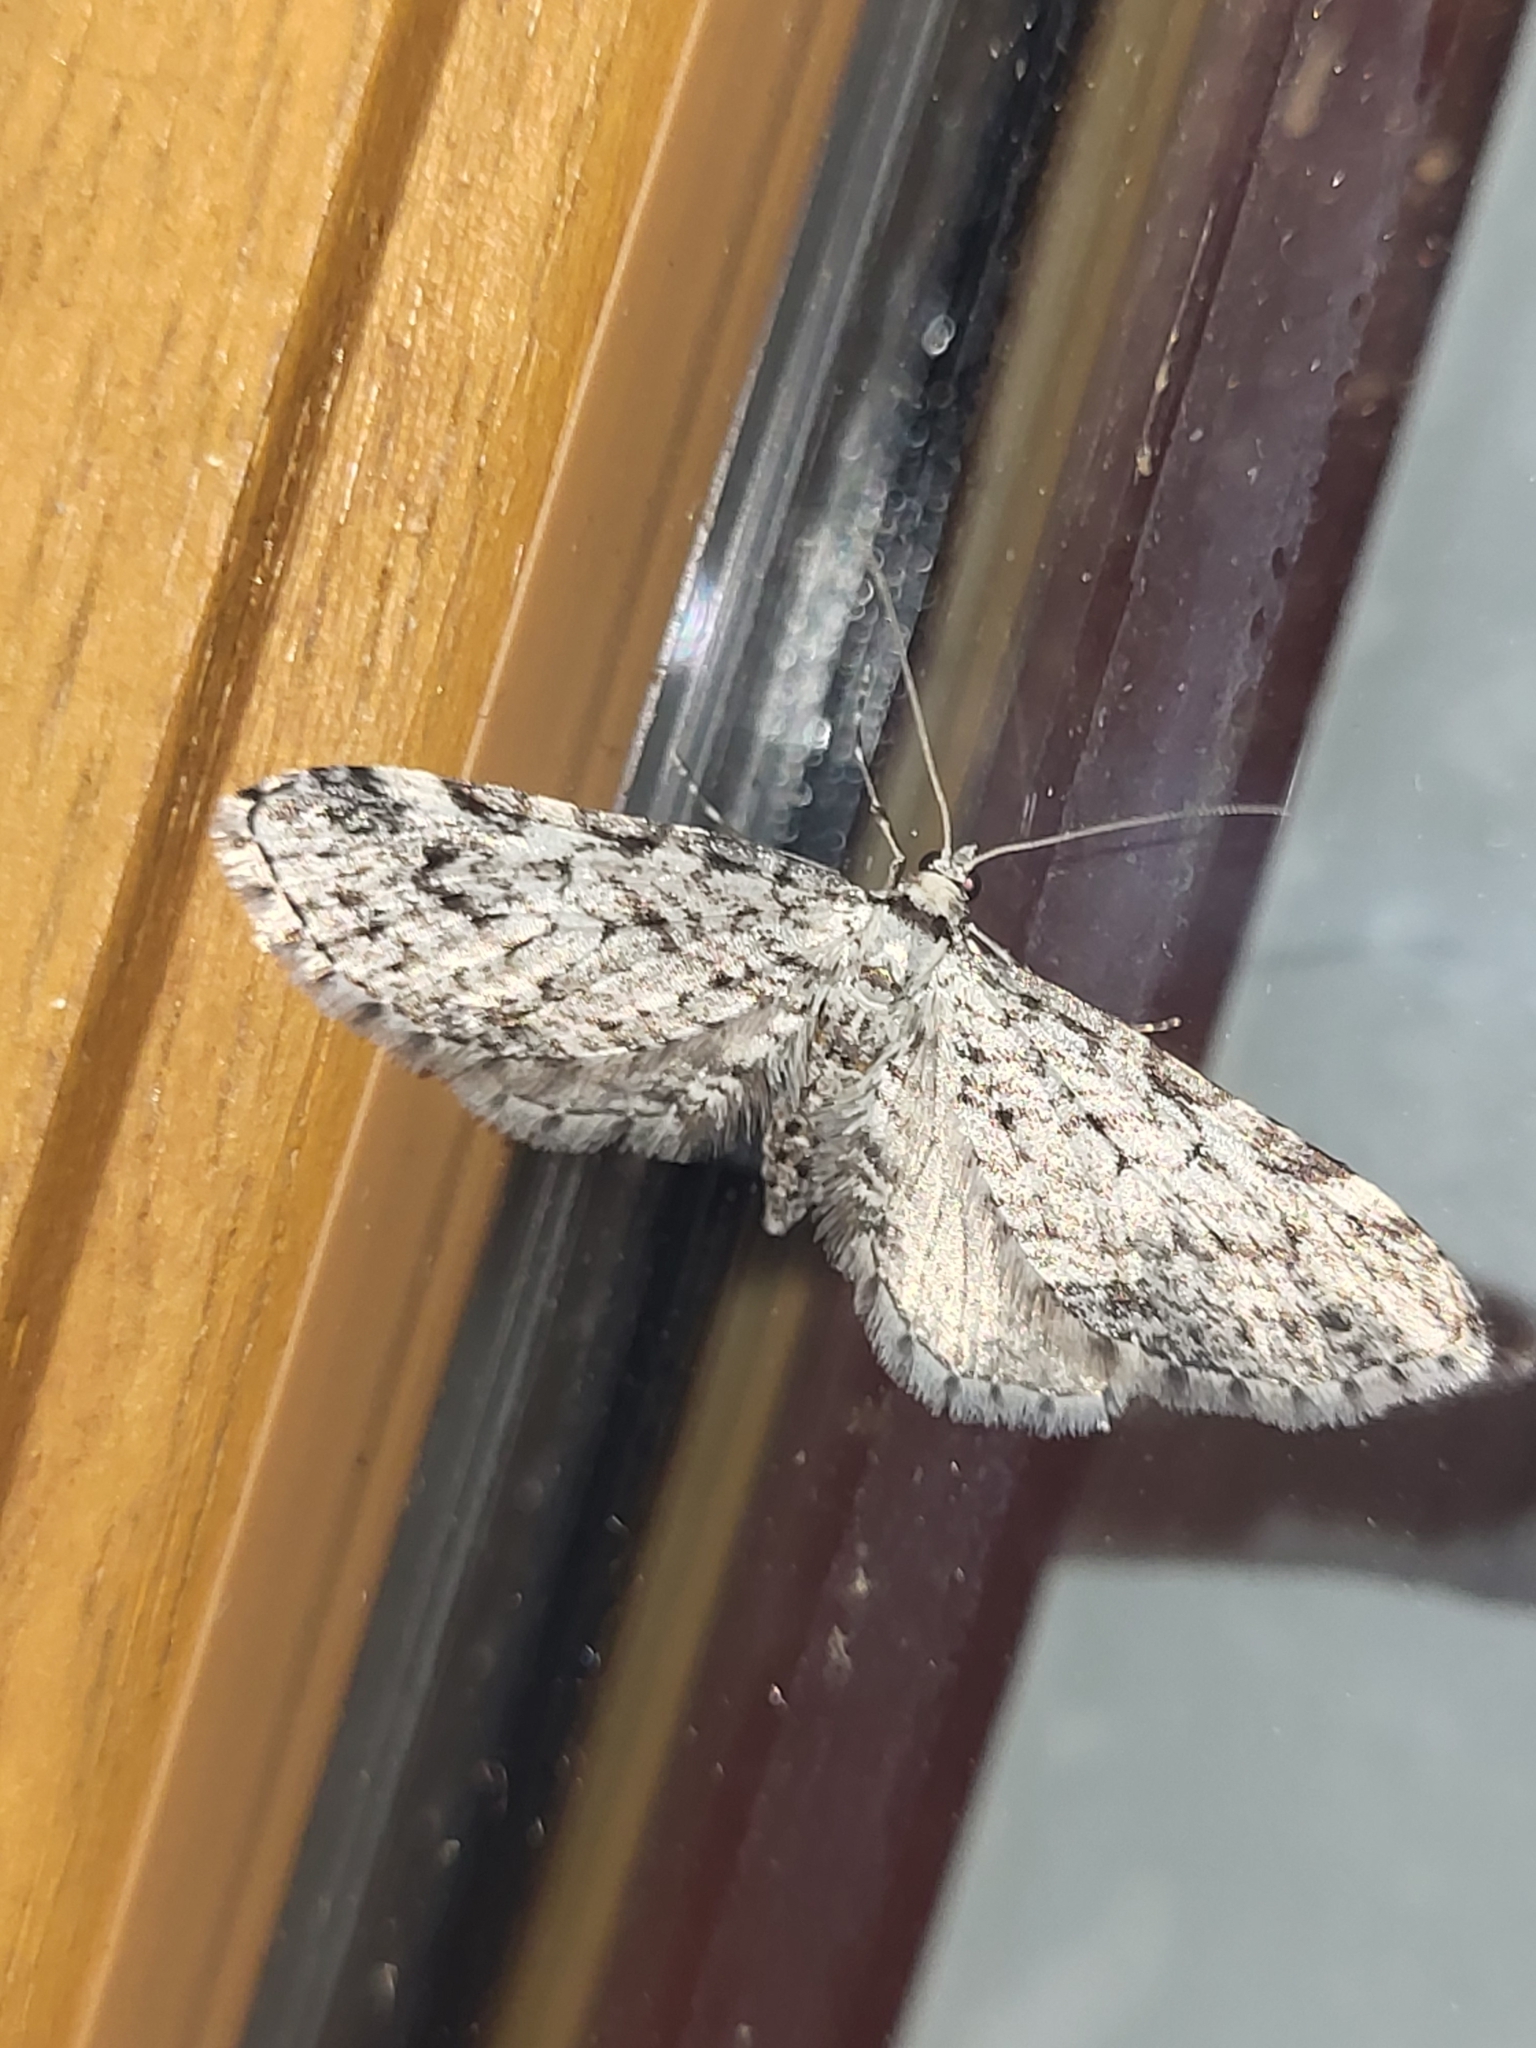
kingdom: Animalia
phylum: Arthropoda
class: Insecta
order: Lepidoptera
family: Geometridae
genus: Eupithecia
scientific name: Eupithecia graphiticata
